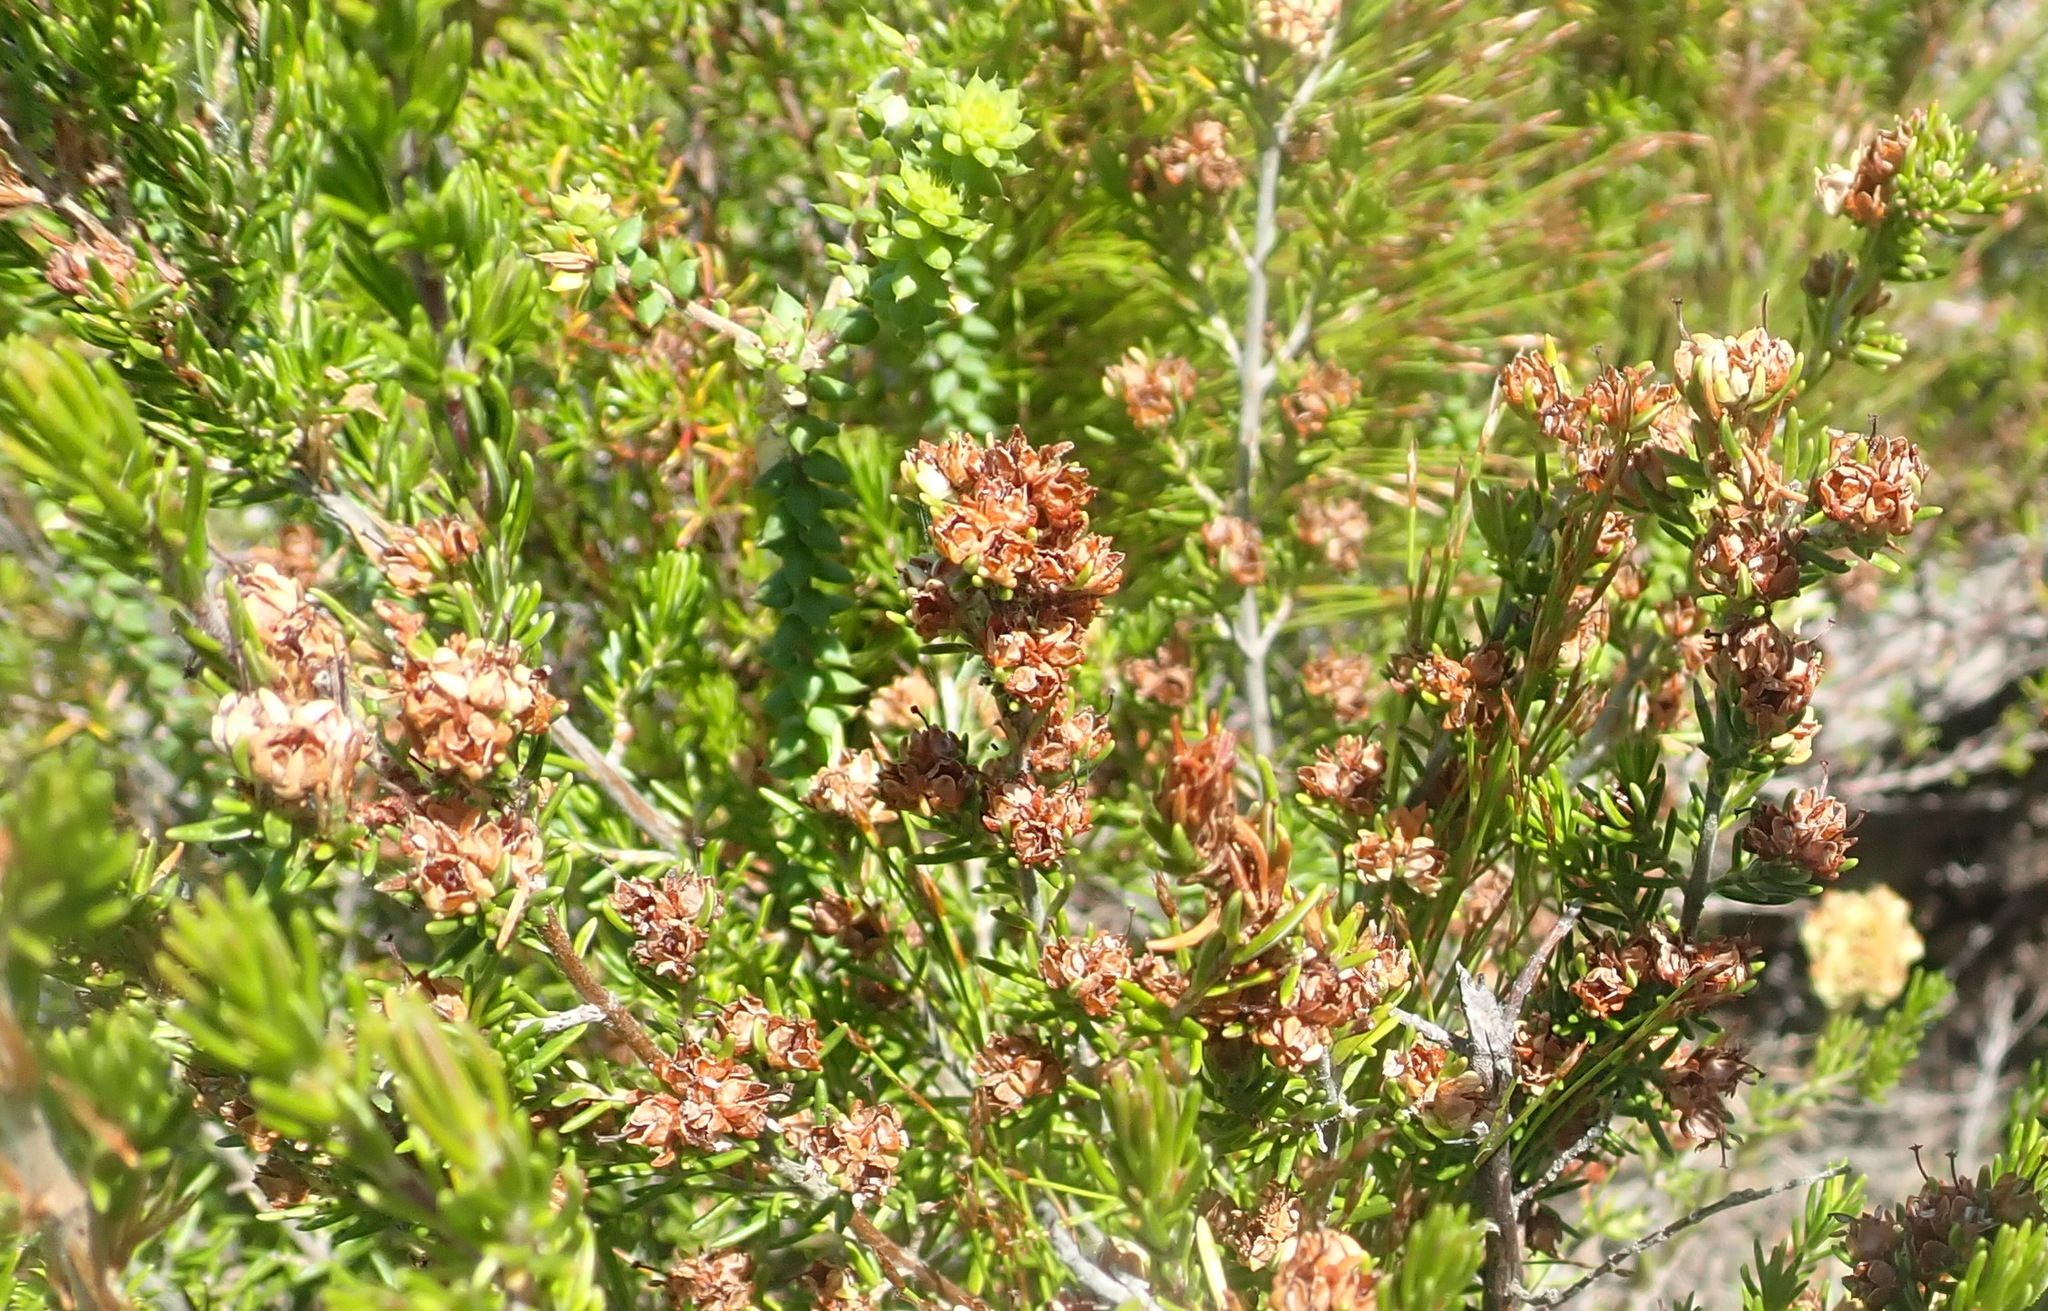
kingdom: Plantae
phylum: Tracheophyta
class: Magnoliopsida
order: Ericales
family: Ericaceae
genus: Erica
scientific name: Erica glumiflora
